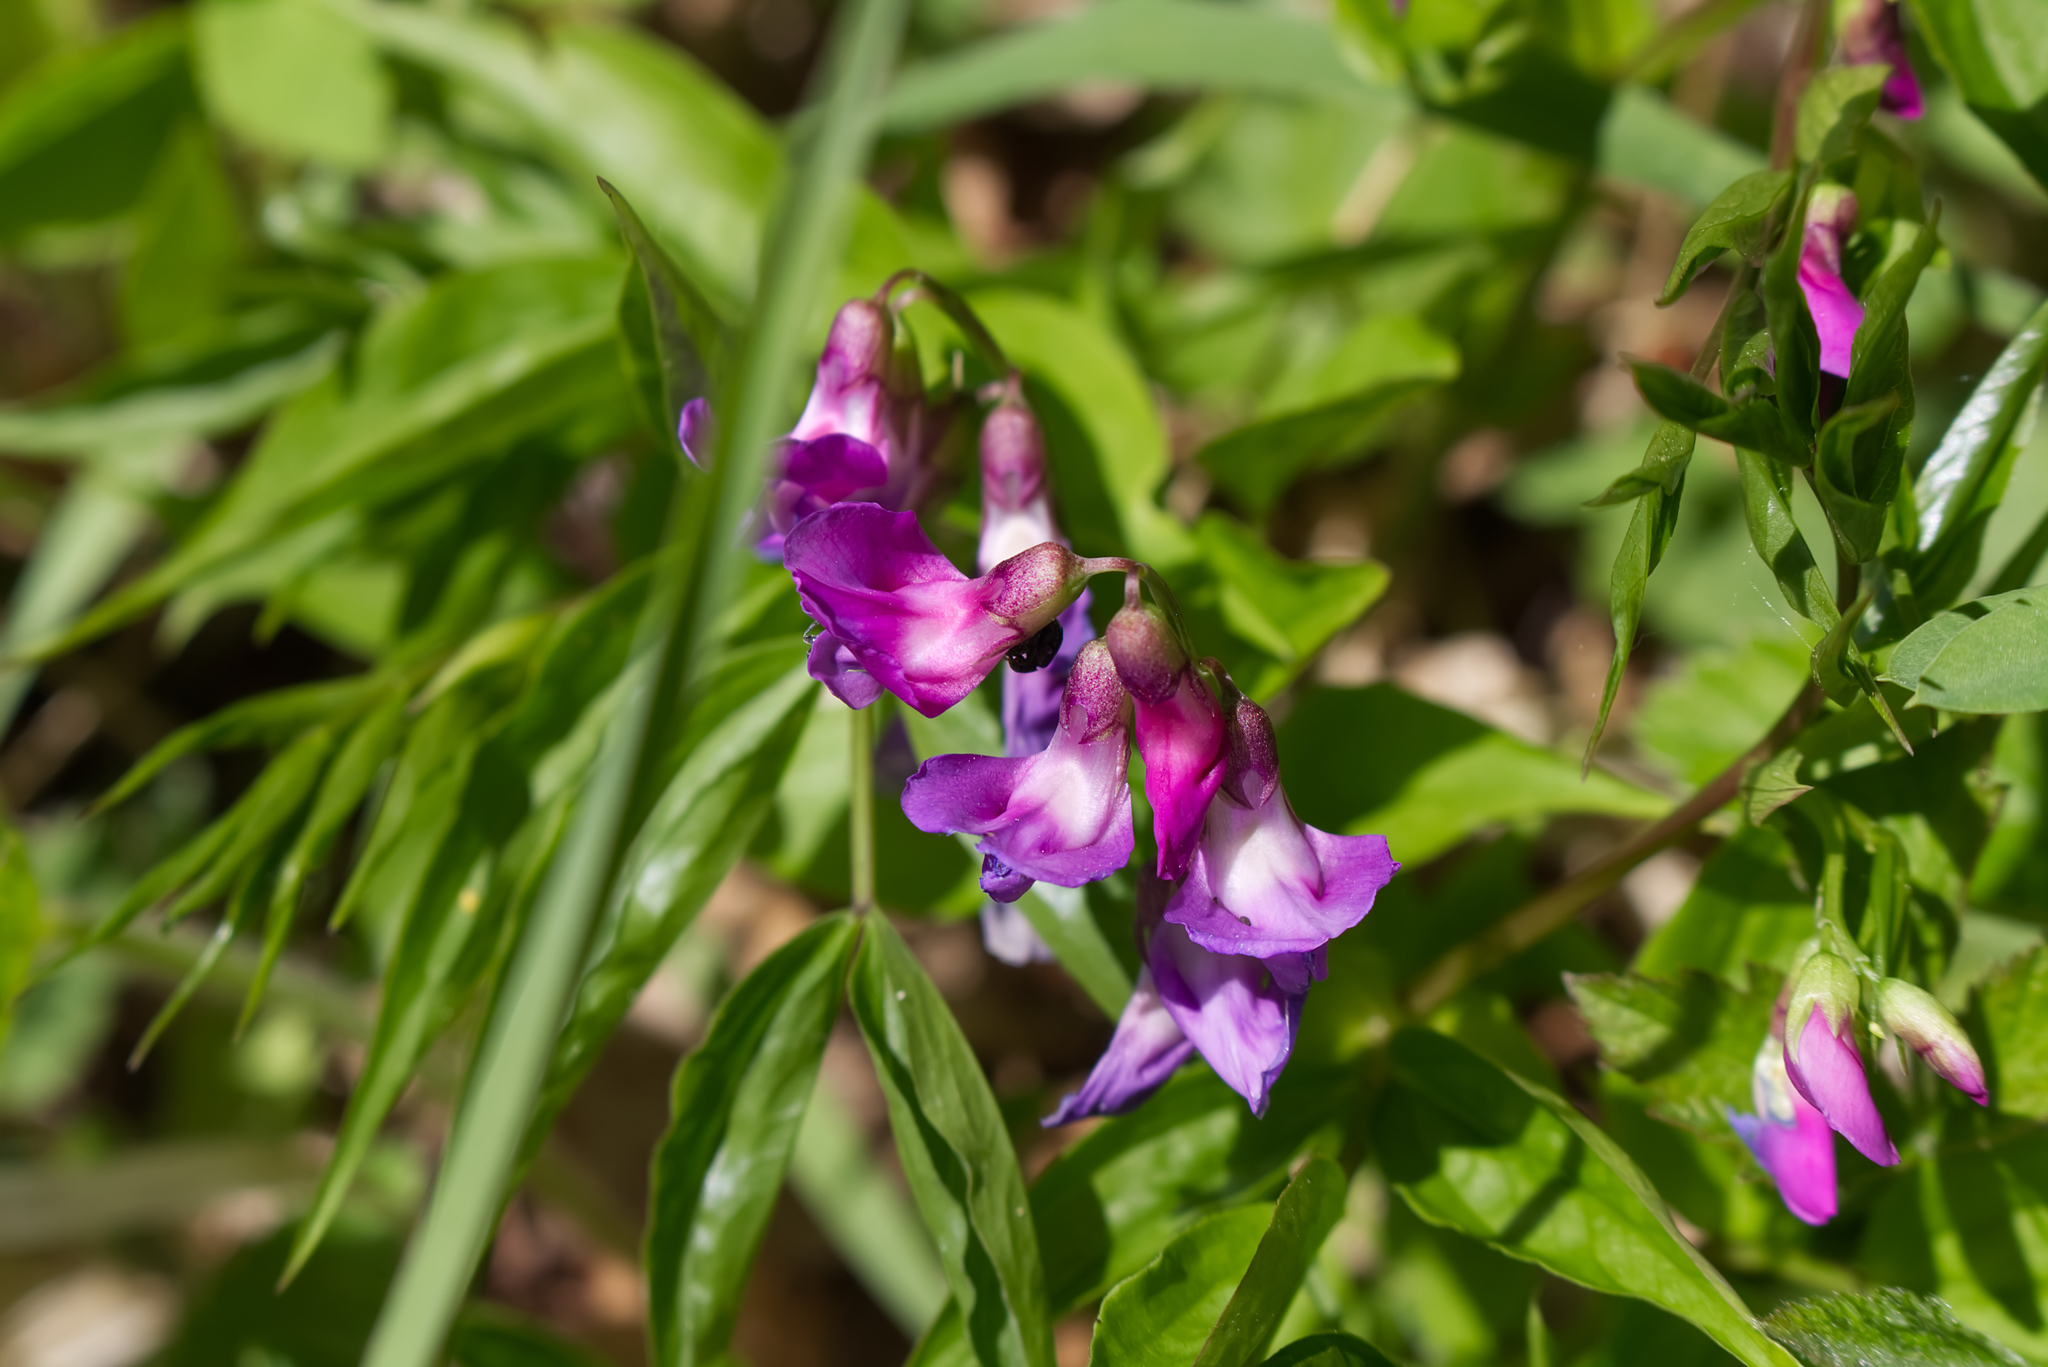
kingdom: Plantae
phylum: Tracheophyta
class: Magnoliopsida
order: Fabales
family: Fabaceae
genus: Lathyrus
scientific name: Lathyrus vernus
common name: Spring pea
